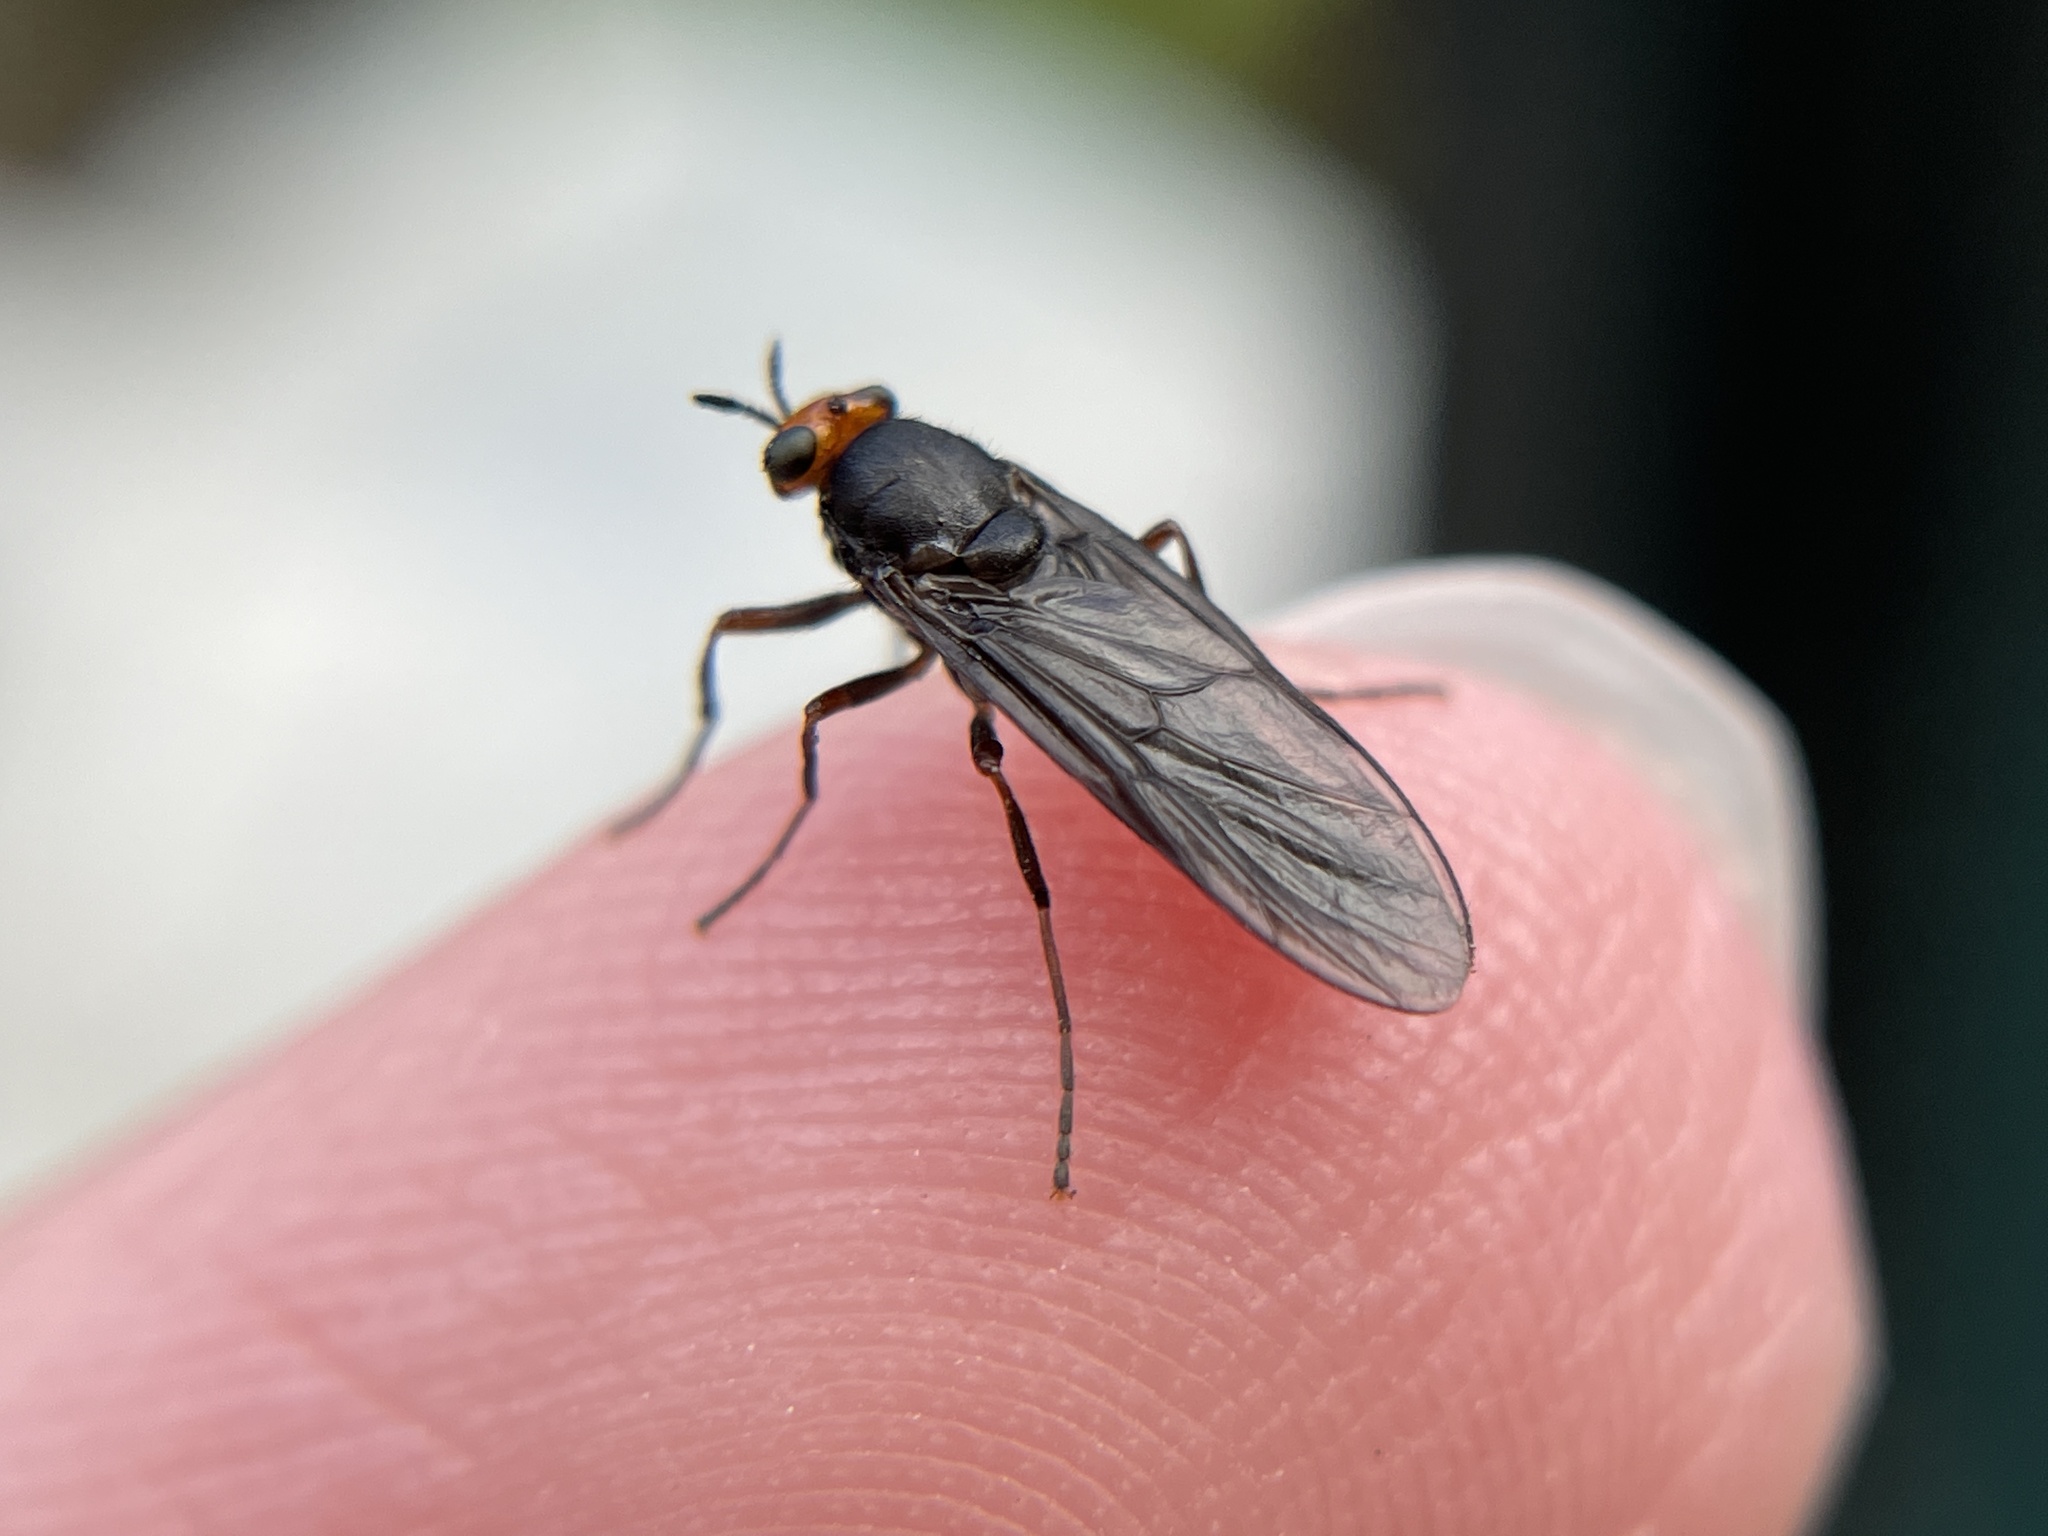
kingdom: Animalia
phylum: Arthropoda
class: Insecta
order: Diptera
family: Stratiomyidae
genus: Inopus
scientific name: Inopus rubriceps
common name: Soldier fly
